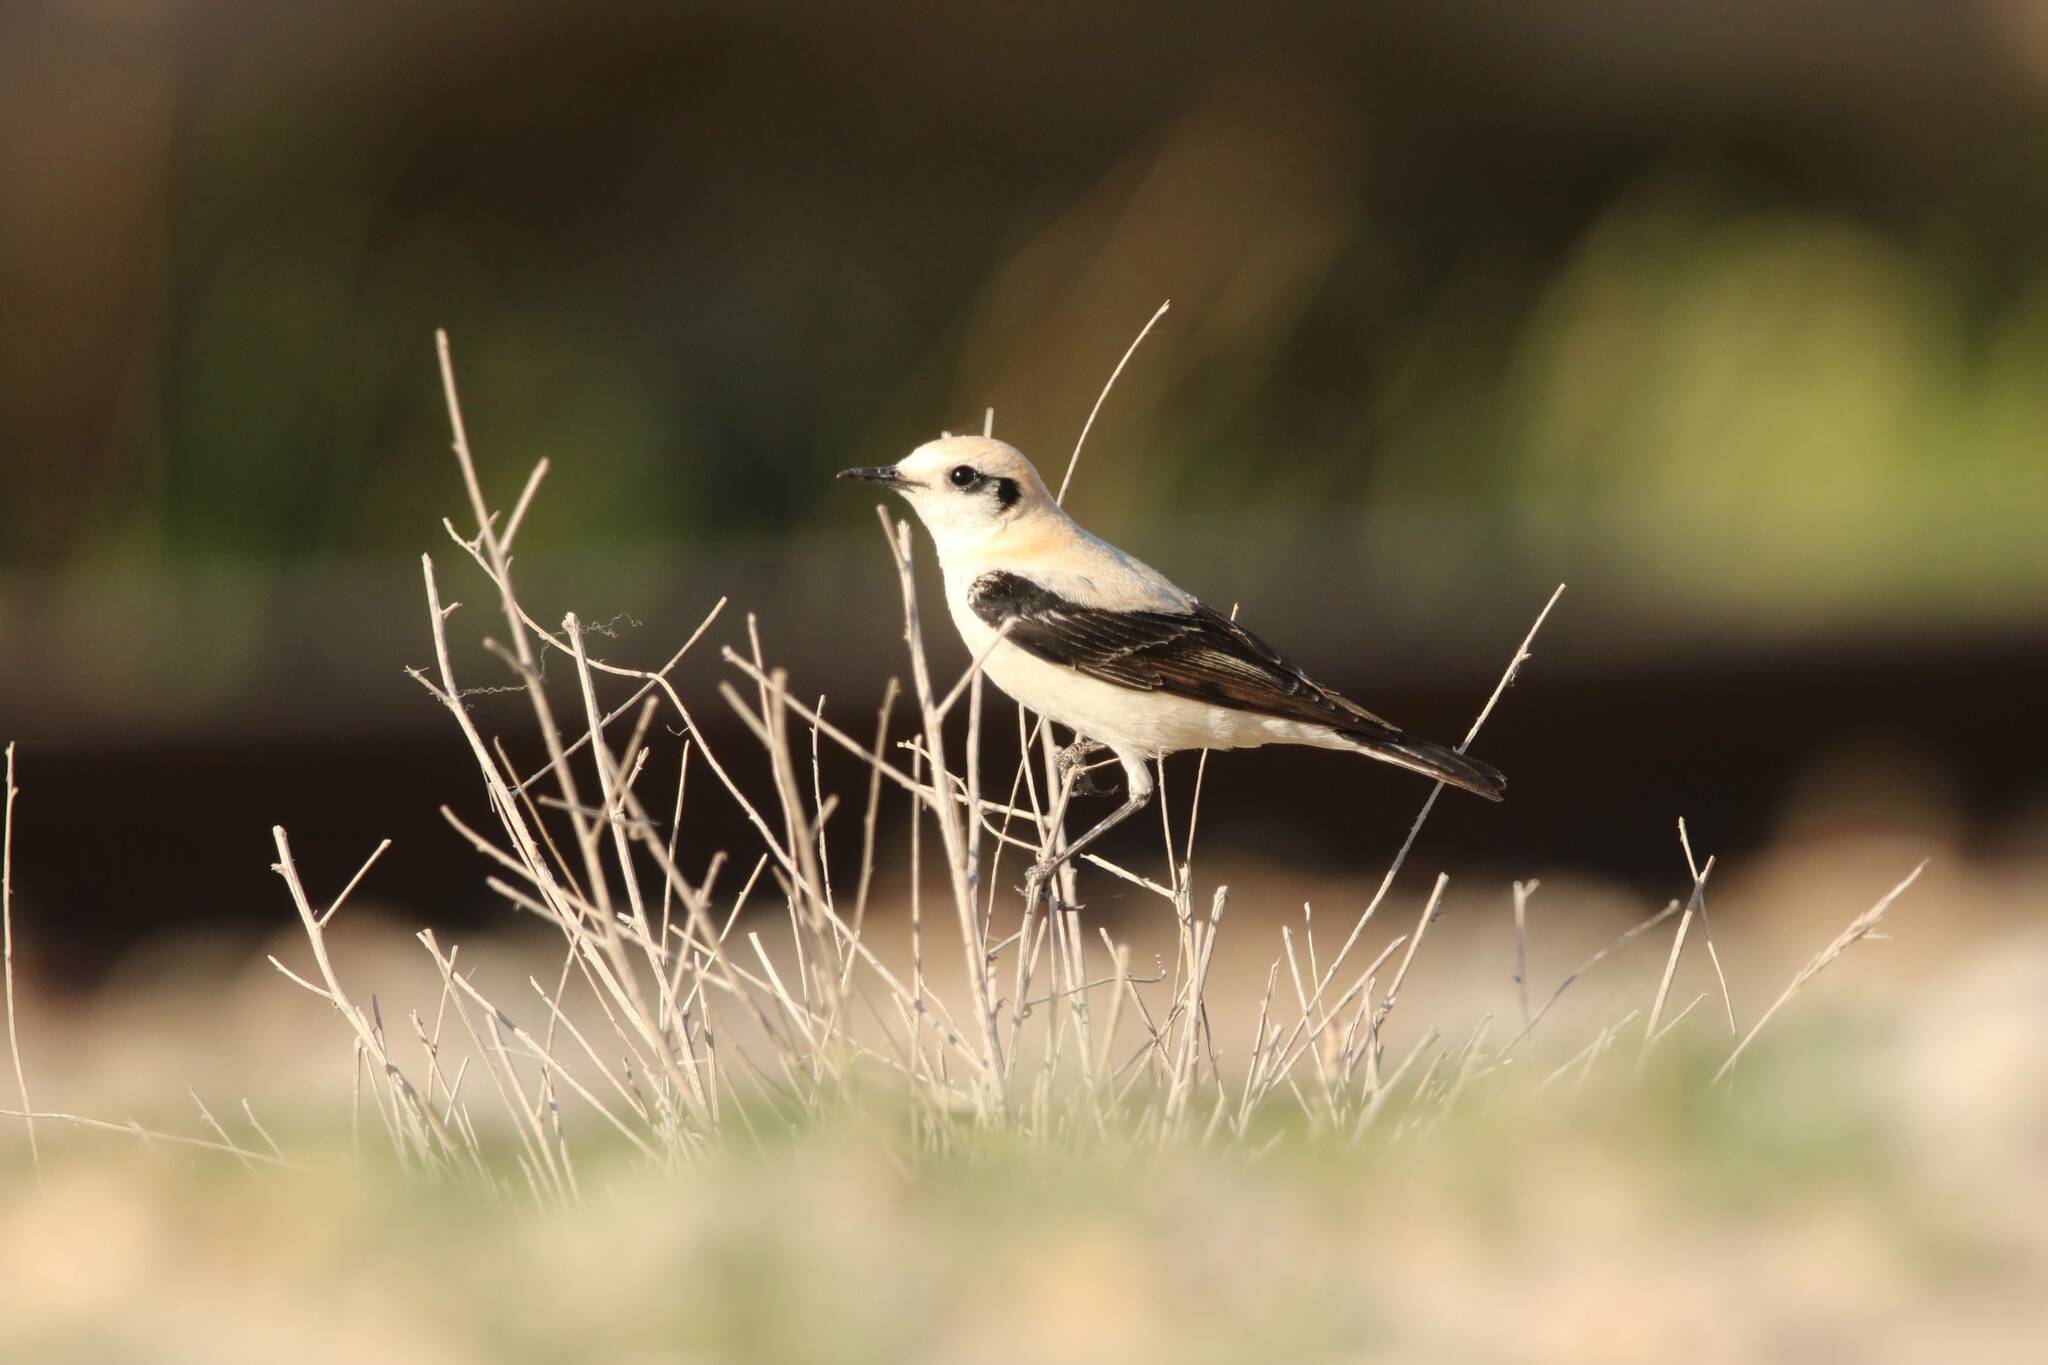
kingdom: Animalia
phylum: Chordata
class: Aves
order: Passeriformes
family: Muscicapidae
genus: Oenanthe
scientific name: Oenanthe hispanica
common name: Black-eared wheatear
